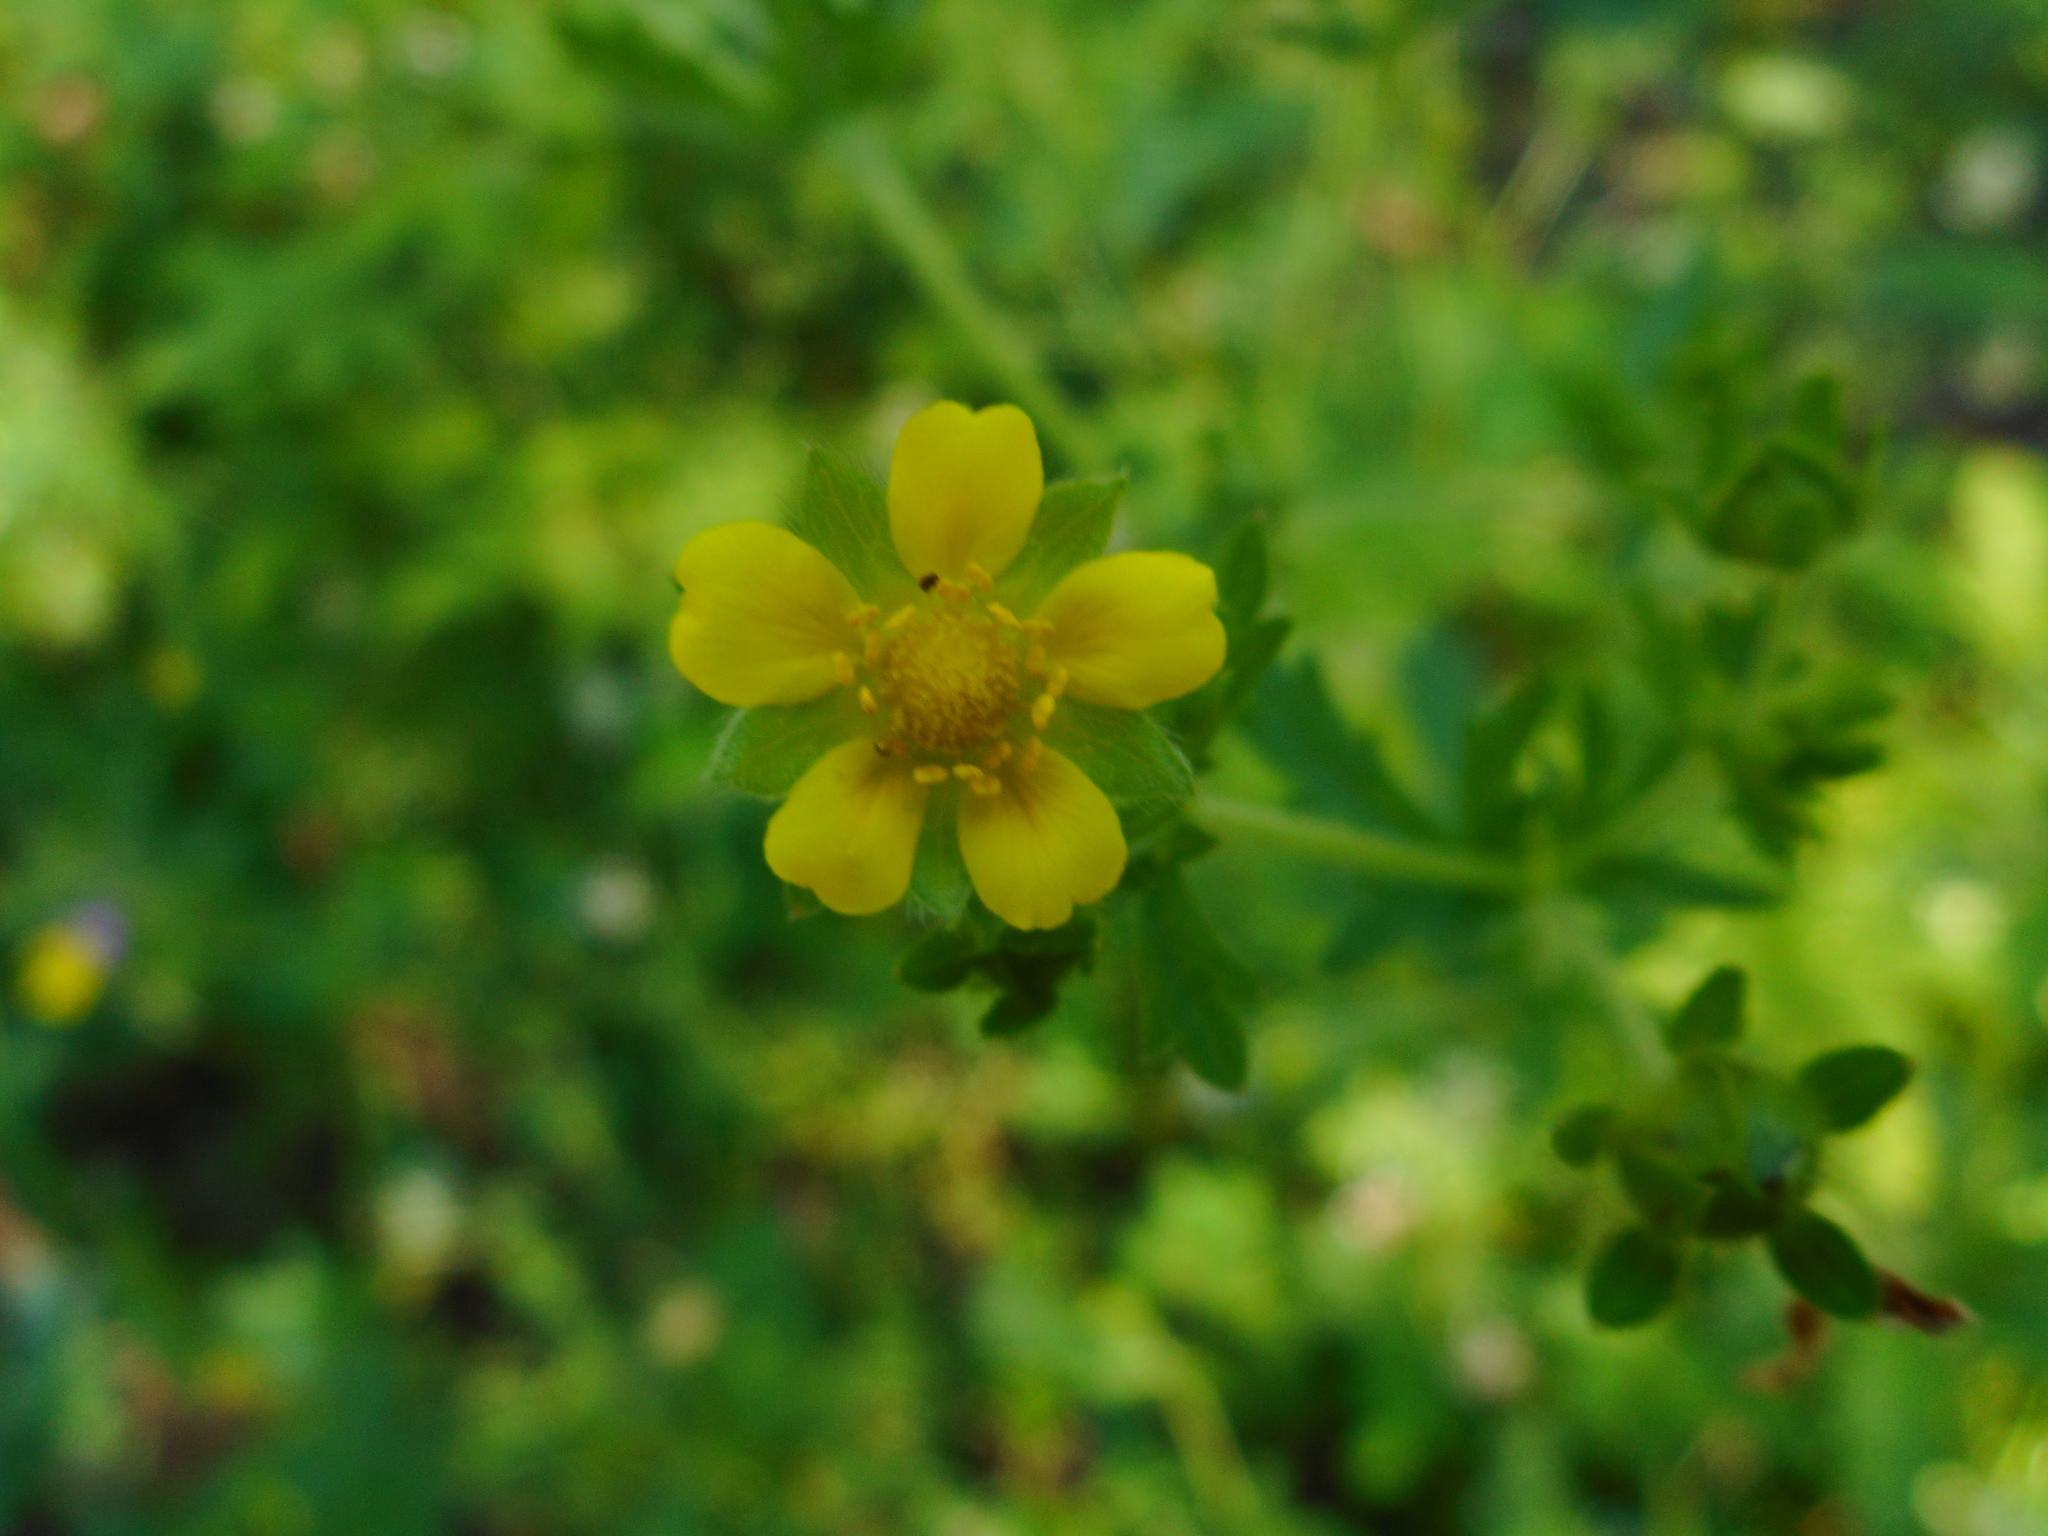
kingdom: Plantae
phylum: Tracheophyta
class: Magnoliopsida
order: Rosales
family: Rosaceae
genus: Potentilla
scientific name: Potentilla intermedia
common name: Downy cinquefoil
